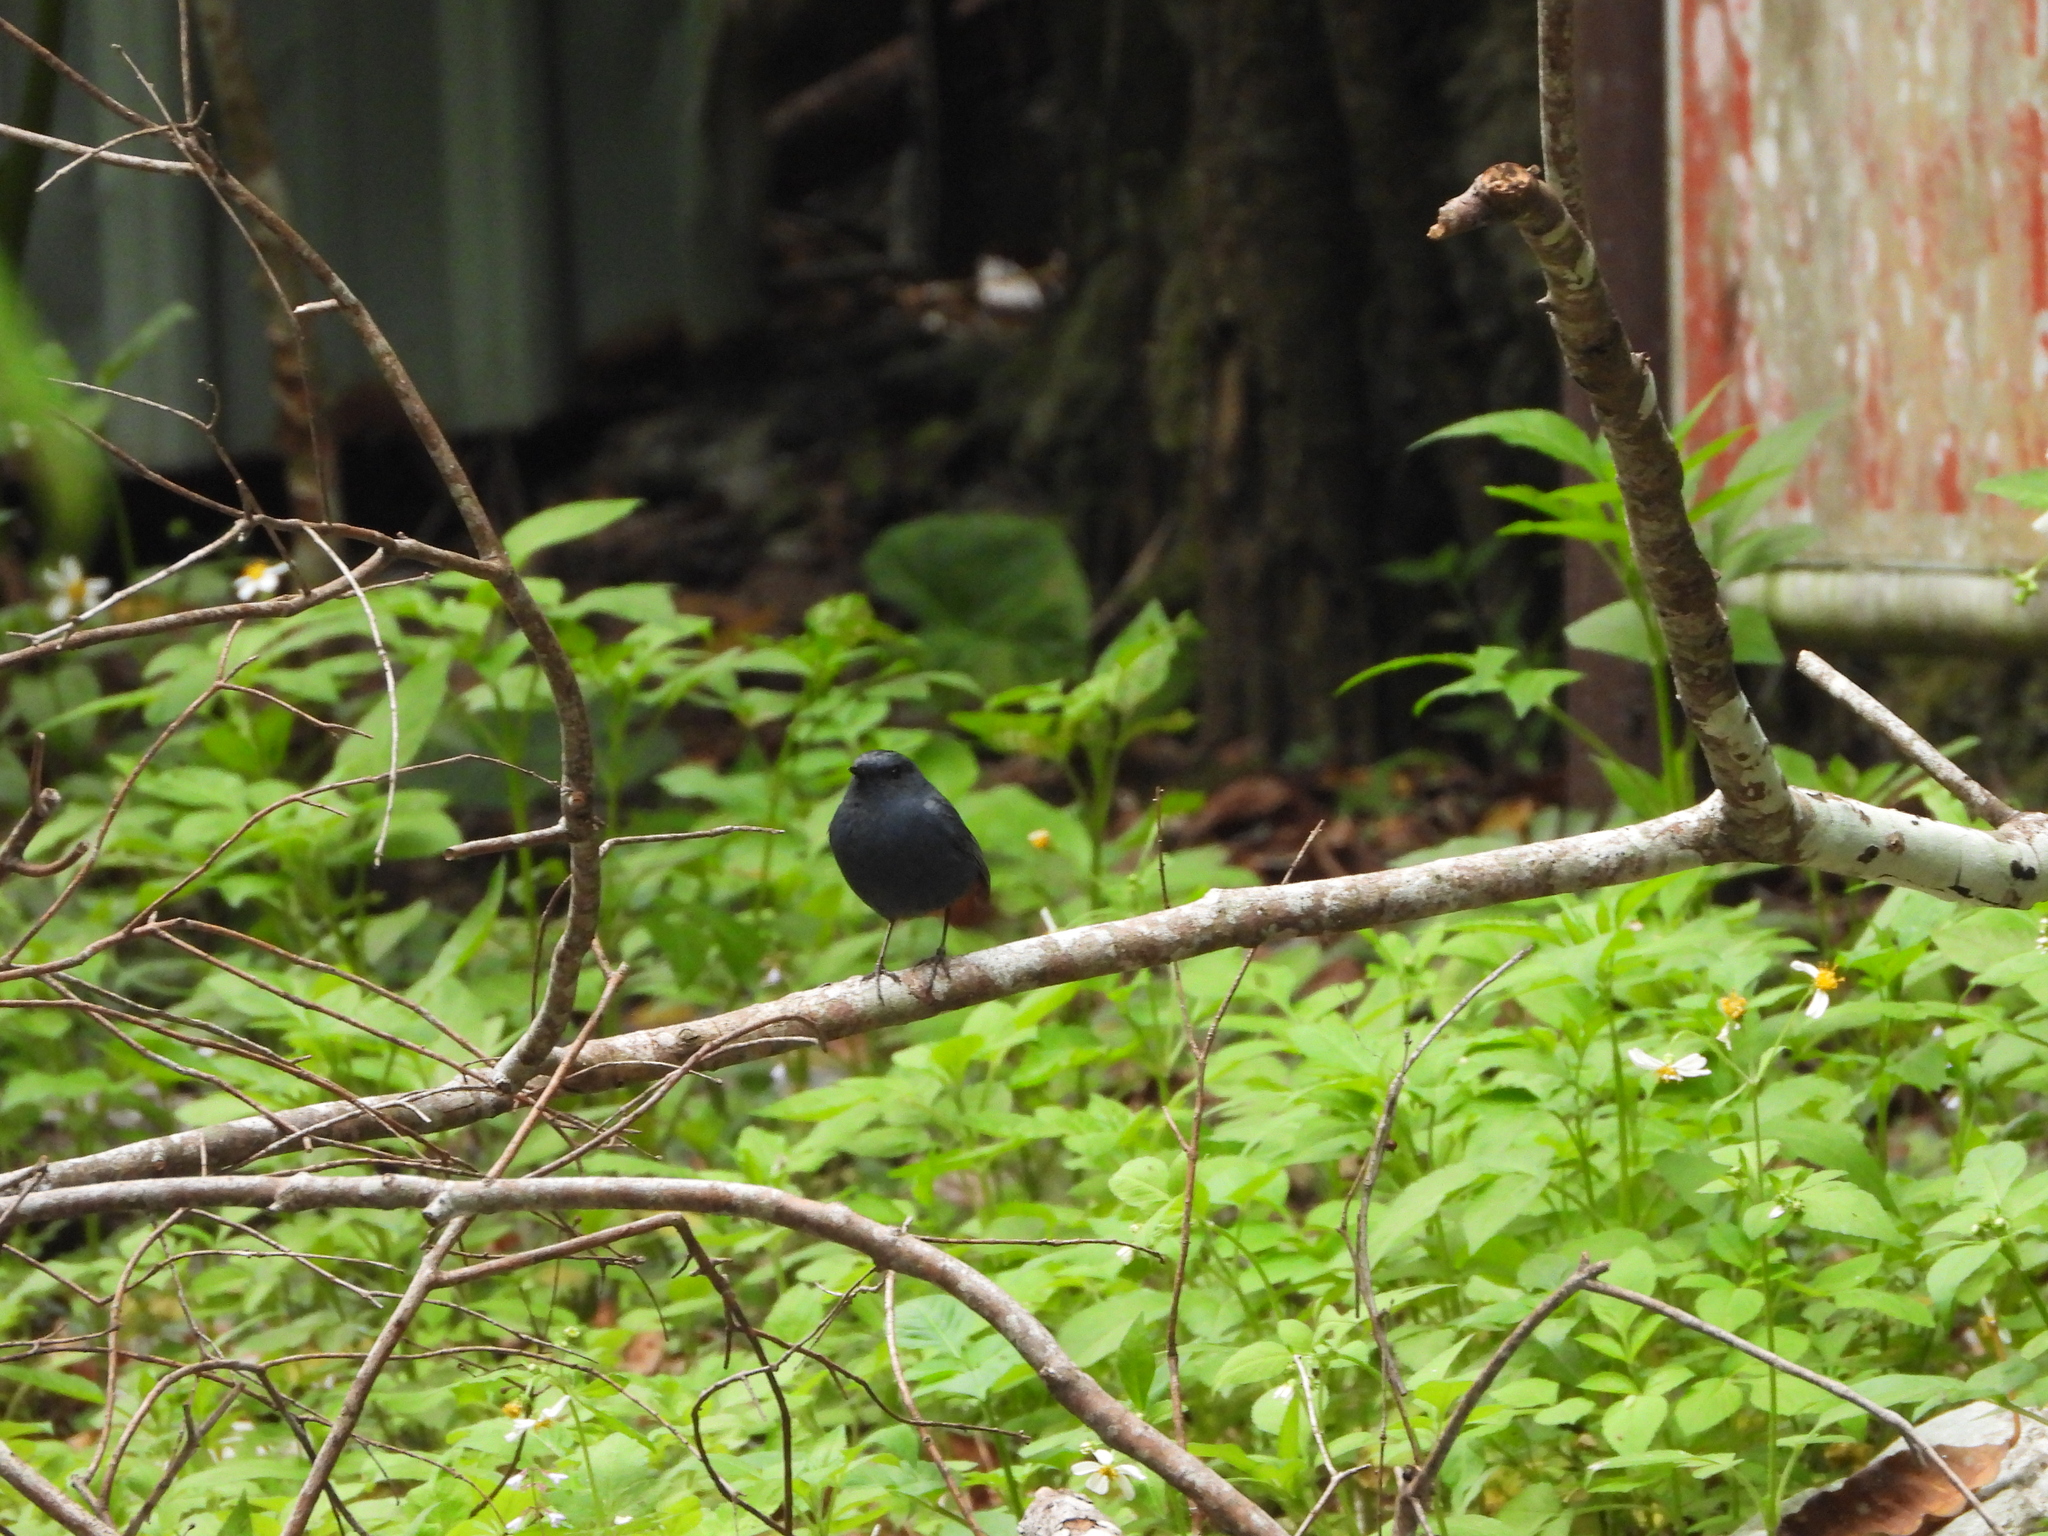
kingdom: Animalia
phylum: Chordata
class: Aves
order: Passeriformes
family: Muscicapidae
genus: Phoenicurus
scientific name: Phoenicurus fuliginosus
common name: Plumbeous water redstart
